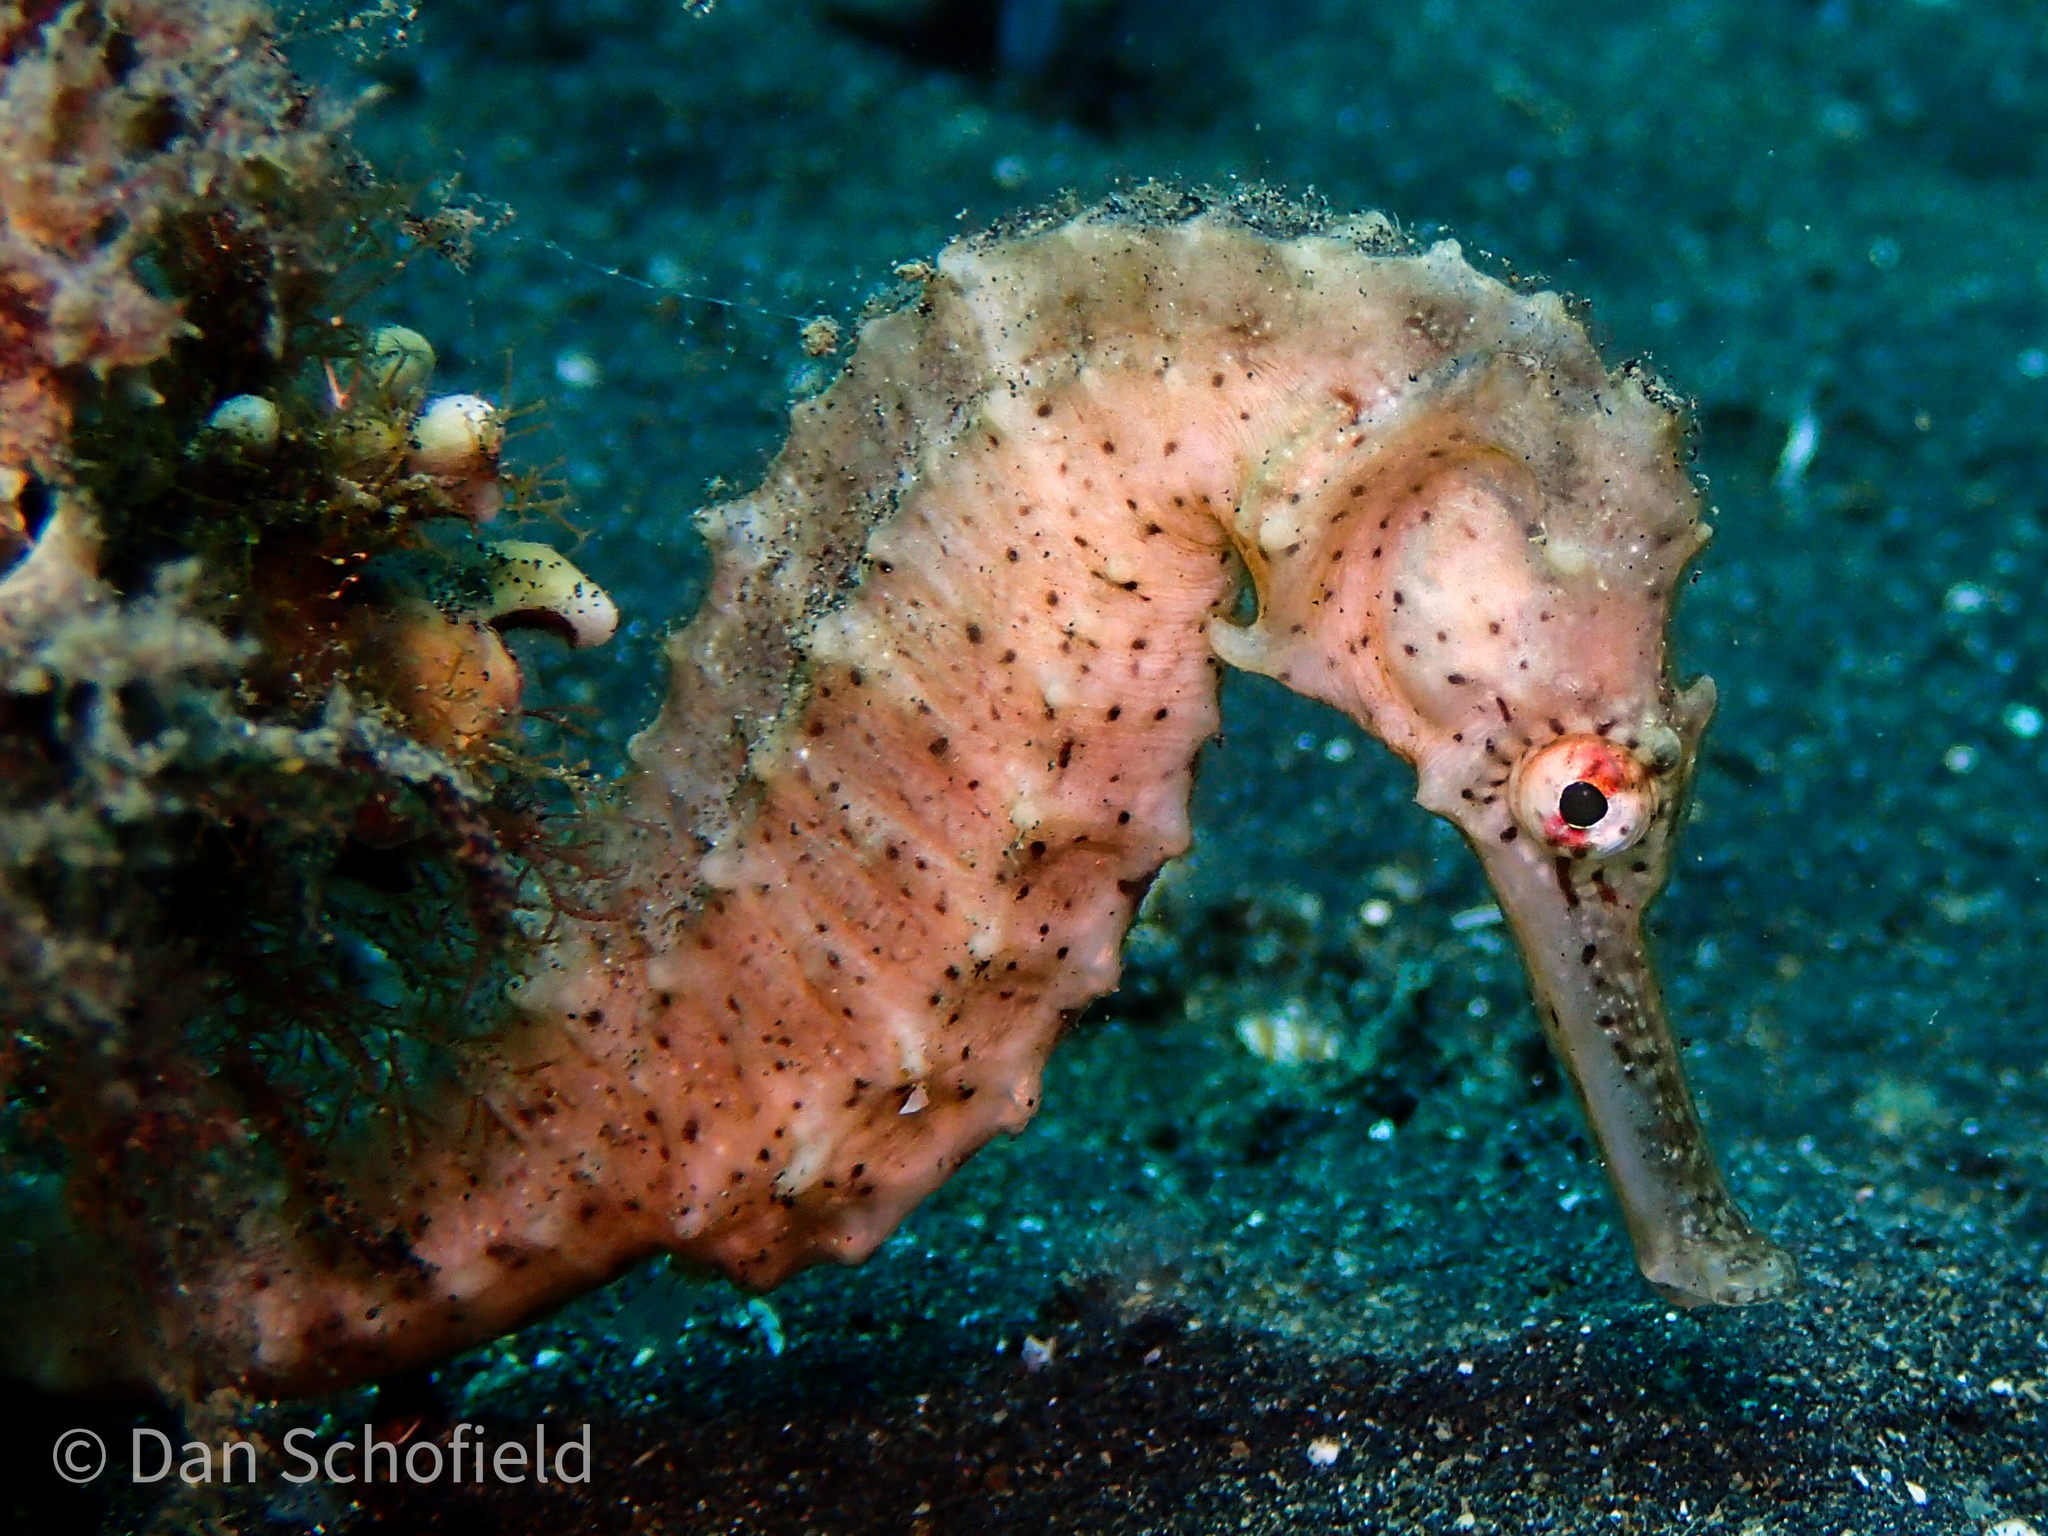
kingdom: Animalia
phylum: Chordata
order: Syngnathiformes
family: Syngnathidae
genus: Hippocampus
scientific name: Hippocampus trimaculatus
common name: Flat-faced seahorse
